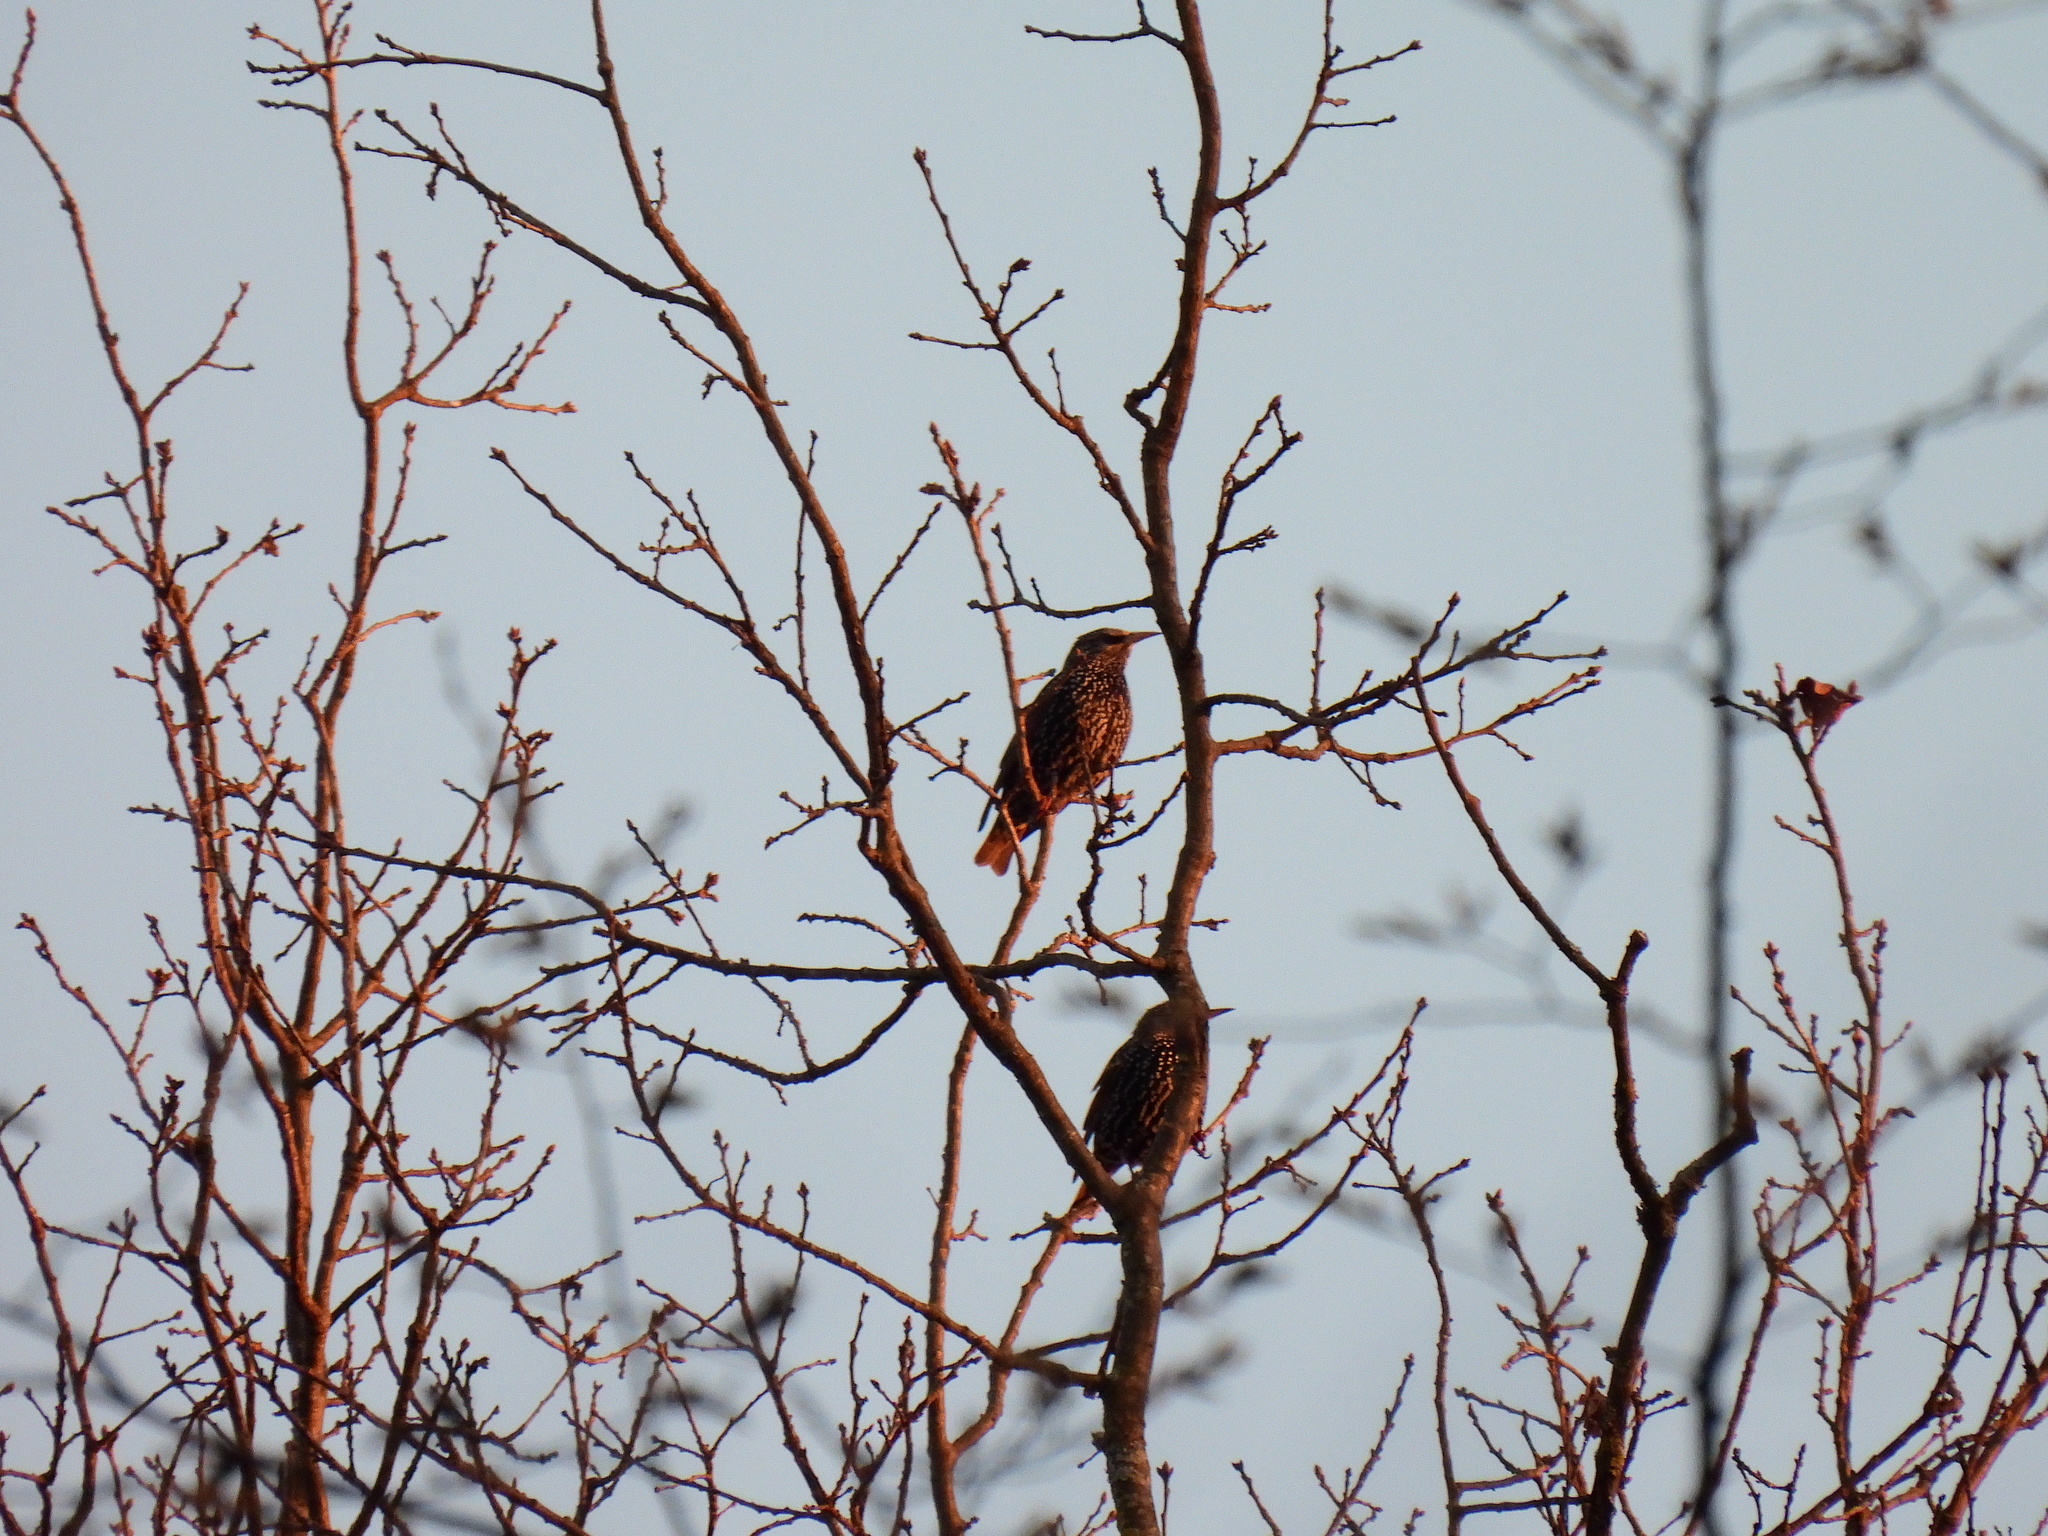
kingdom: Animalia
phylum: Chordata
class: Aves
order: Passeriformes
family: Sturnidae
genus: Sturnus
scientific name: Sturnus vulgaris
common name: Common starling
